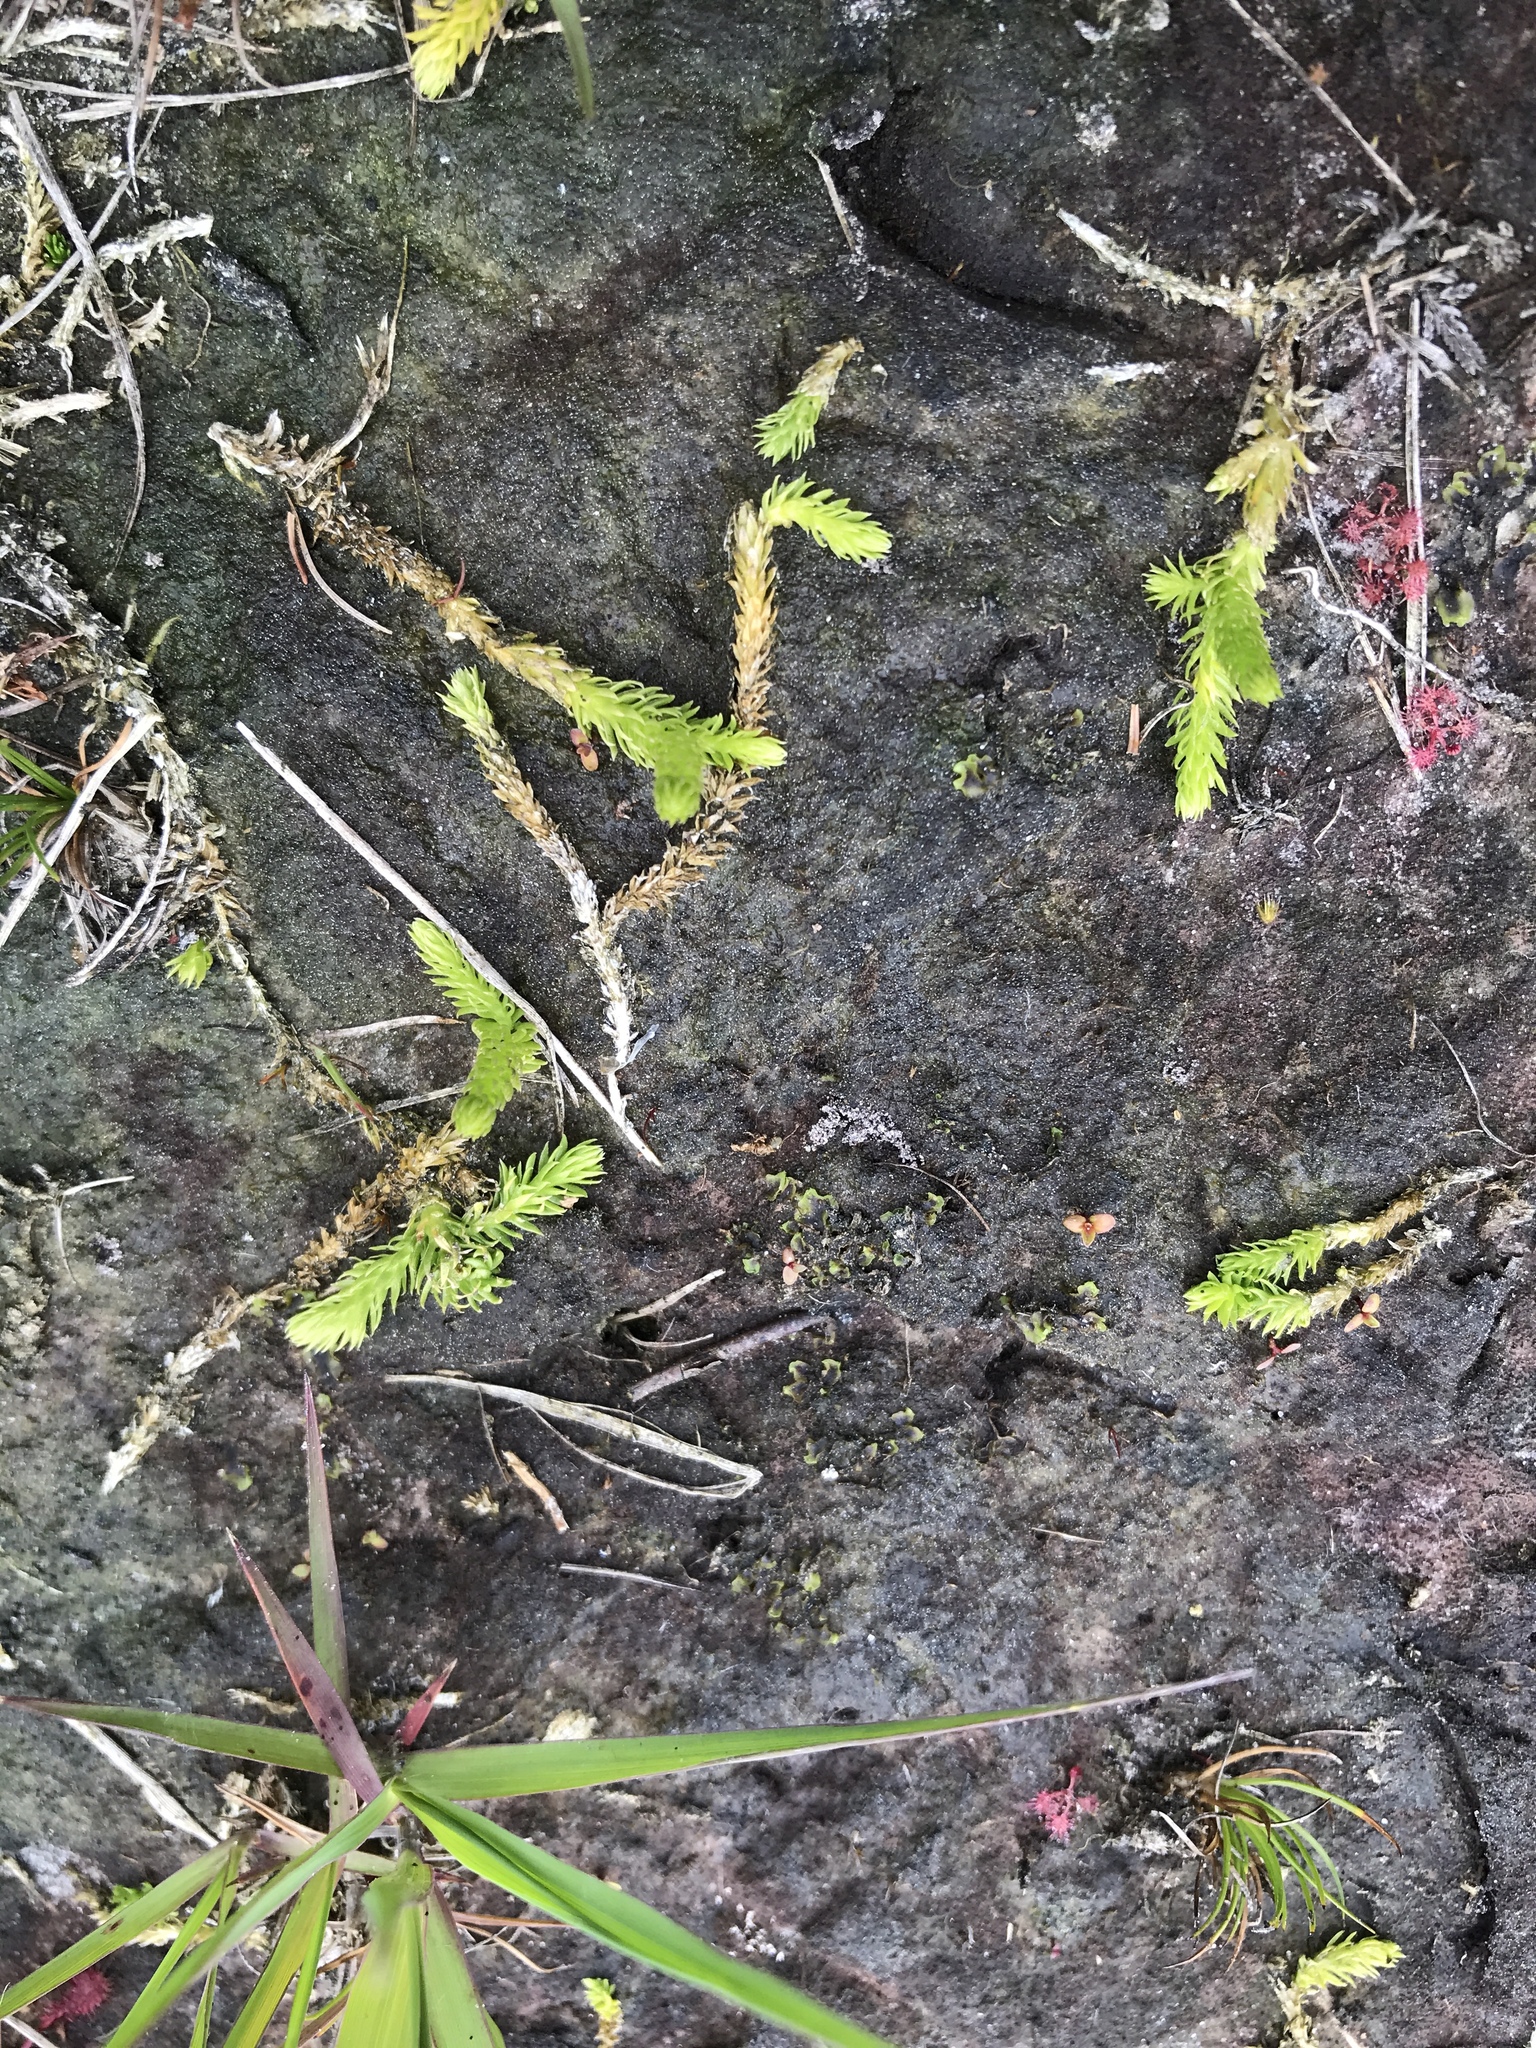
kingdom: Plantae
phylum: Tracheophyta
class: Lycopodiopsida
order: Lycopodiales
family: Lycopodiaceae
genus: Lycopodiella
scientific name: Lycopodiella inundata
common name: Marsh clubmoss
